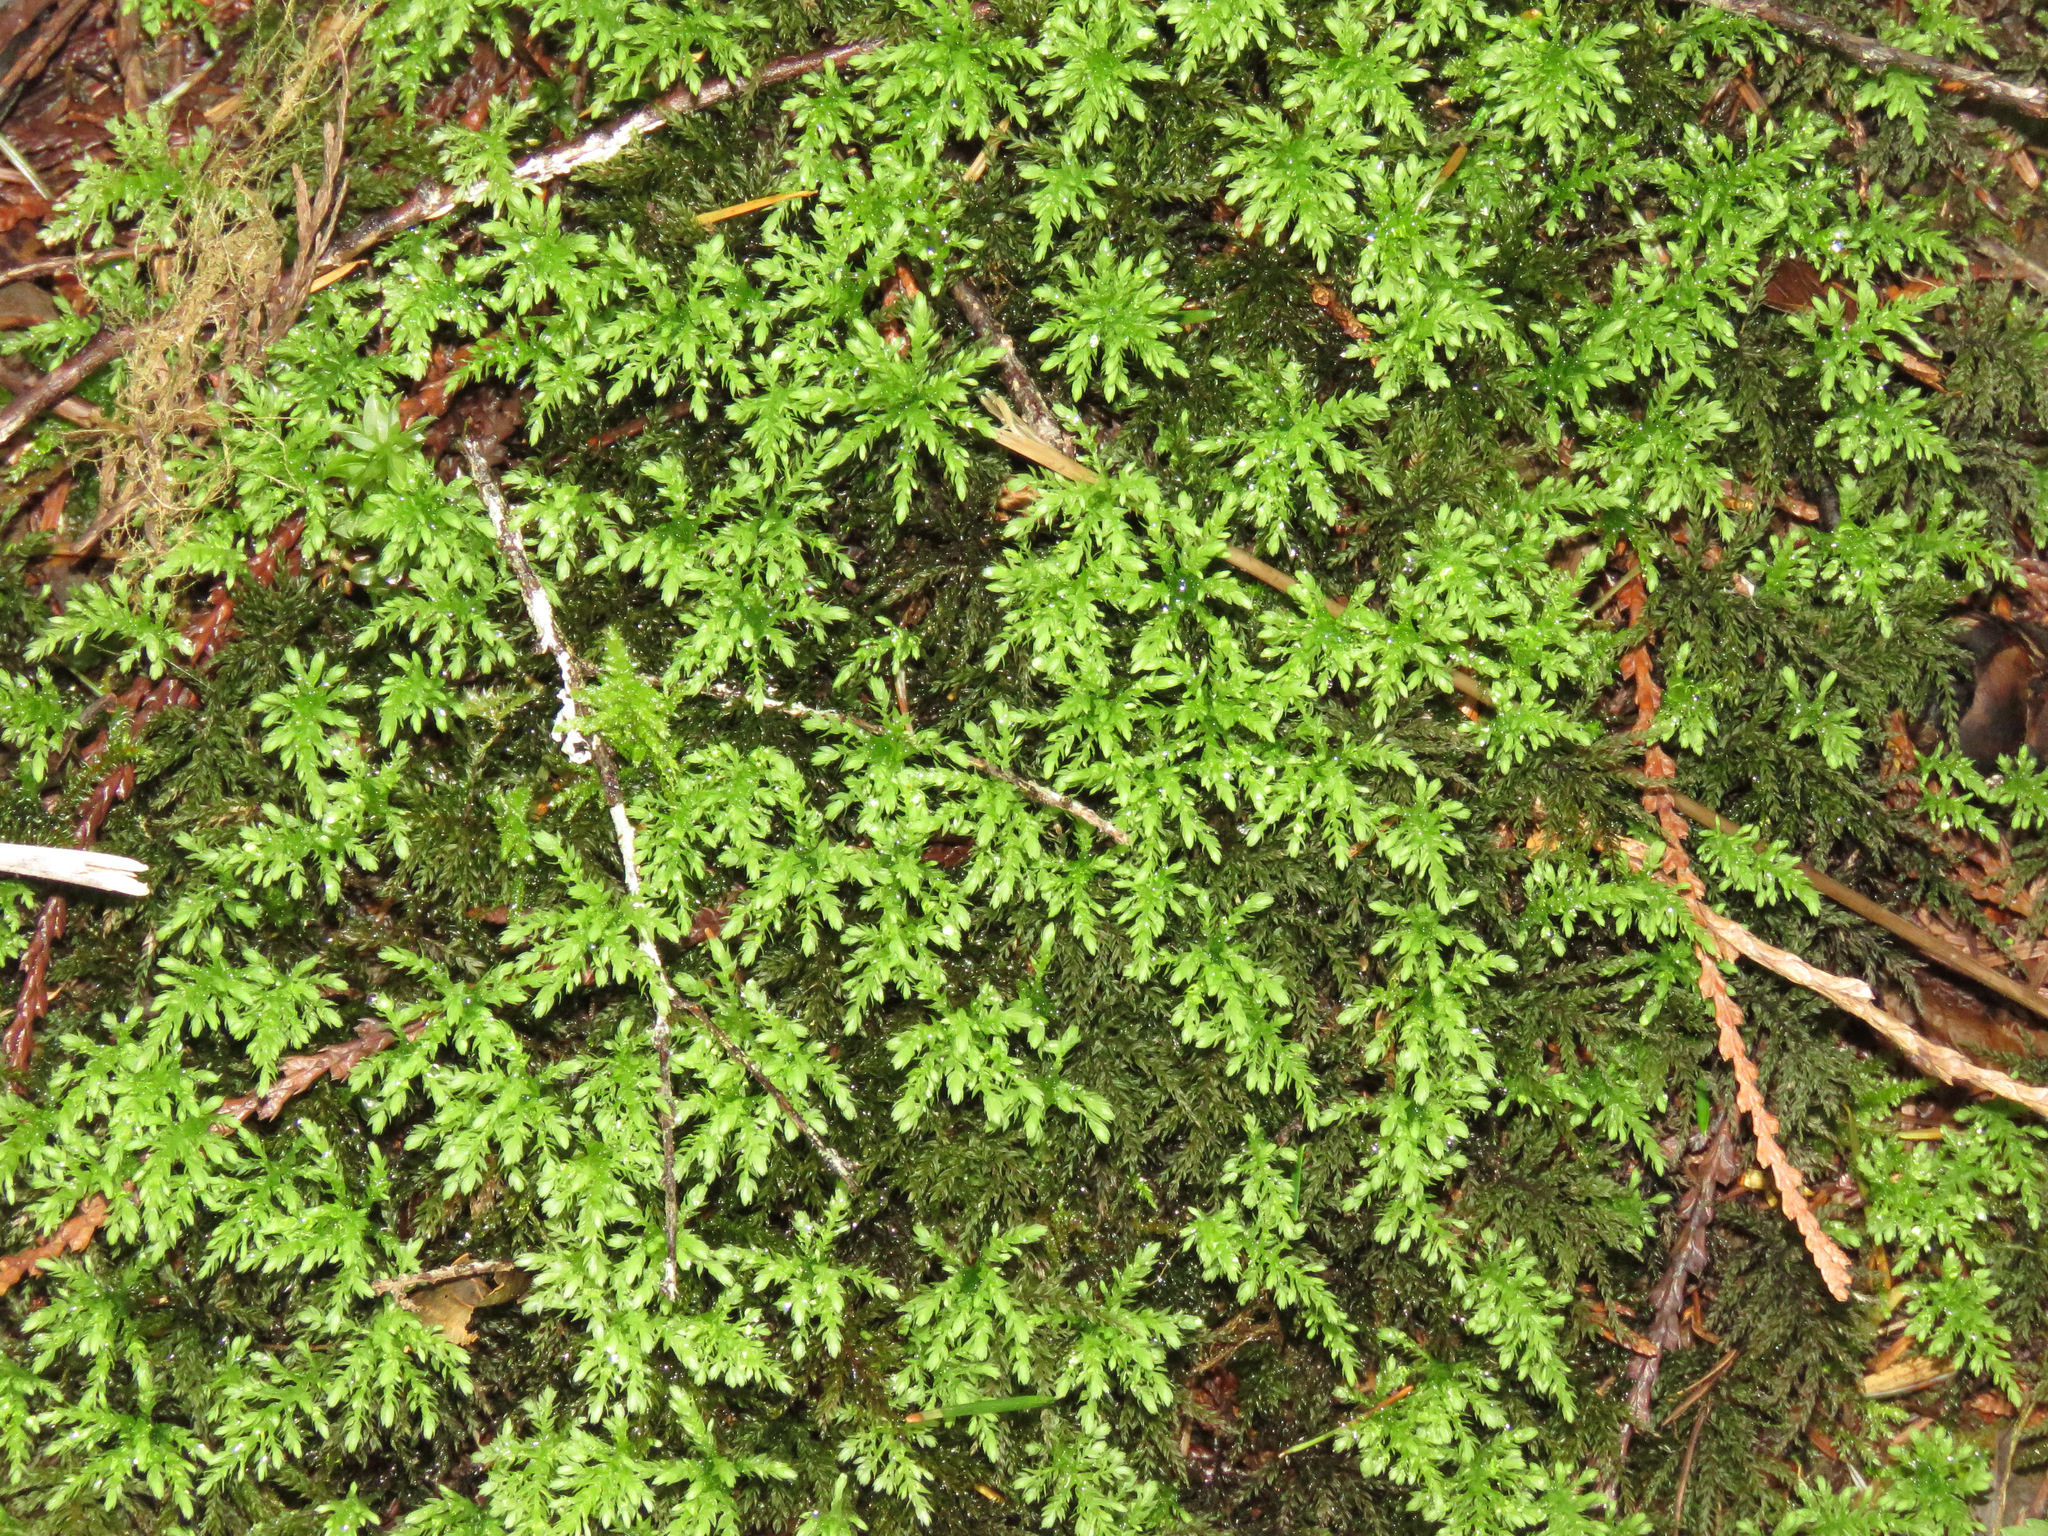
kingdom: Plantae
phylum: Bryophyta
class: Bryopsida
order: Bryales
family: Mniaceae
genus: Leucolepis
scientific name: Leucolepis acanthoneura
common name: Leucolepis umbrella moss
